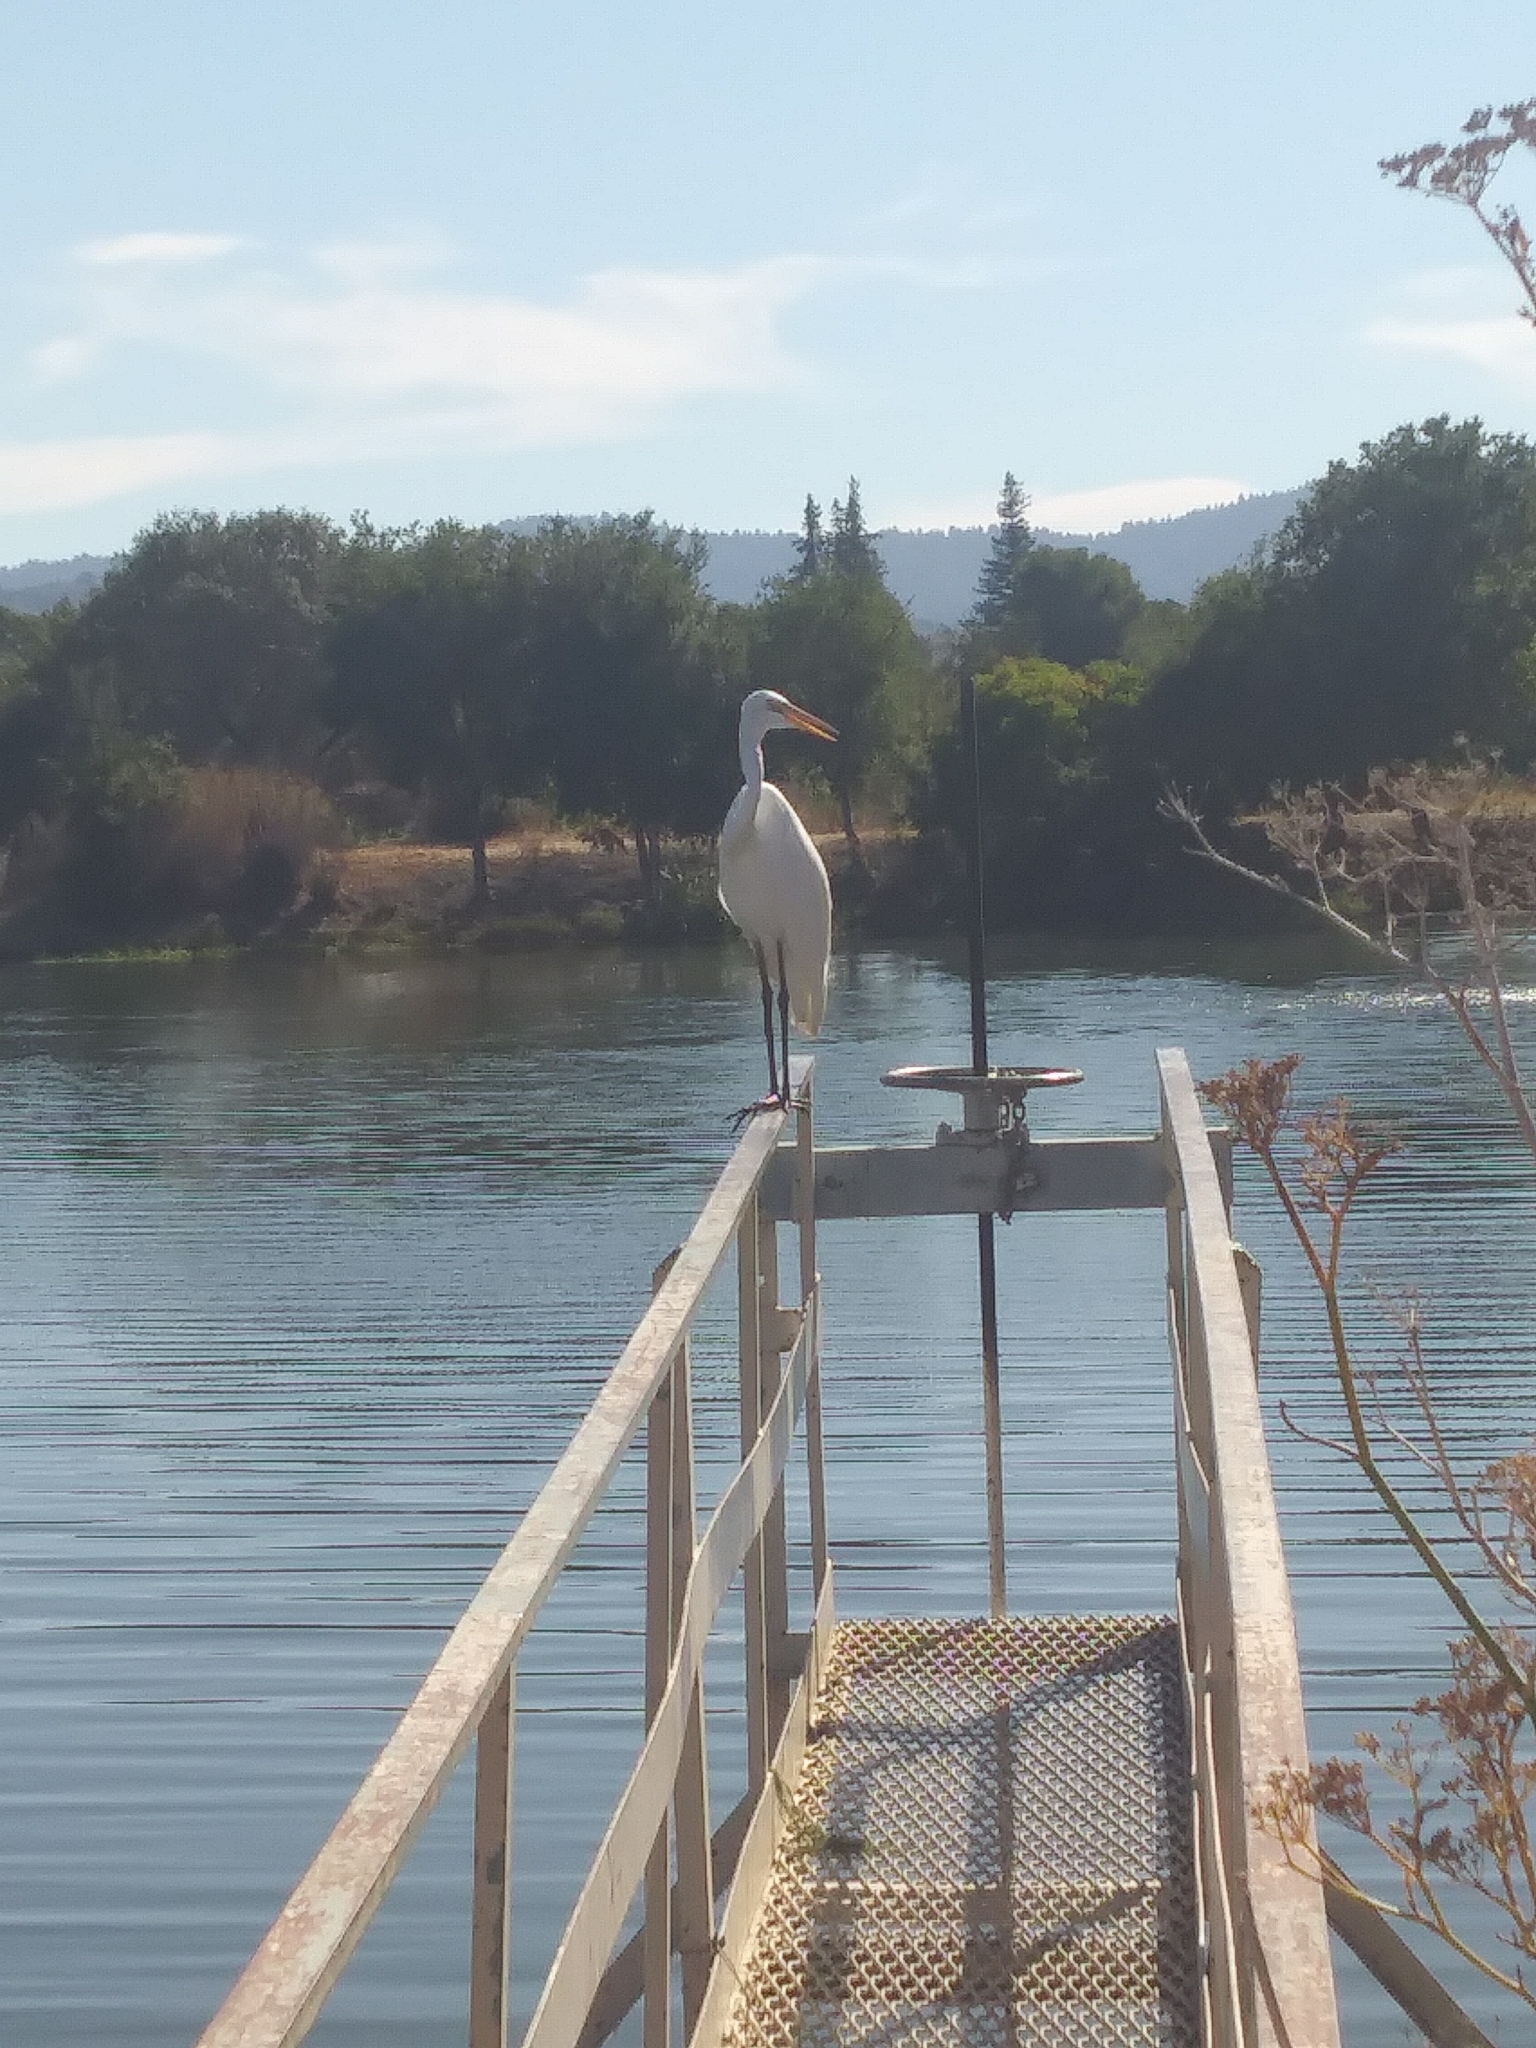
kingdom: Animalia
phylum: Chordata
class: Aves
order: Pelecaniformes
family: Ardeidae
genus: Ardea
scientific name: Ardea alba
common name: Great egret
